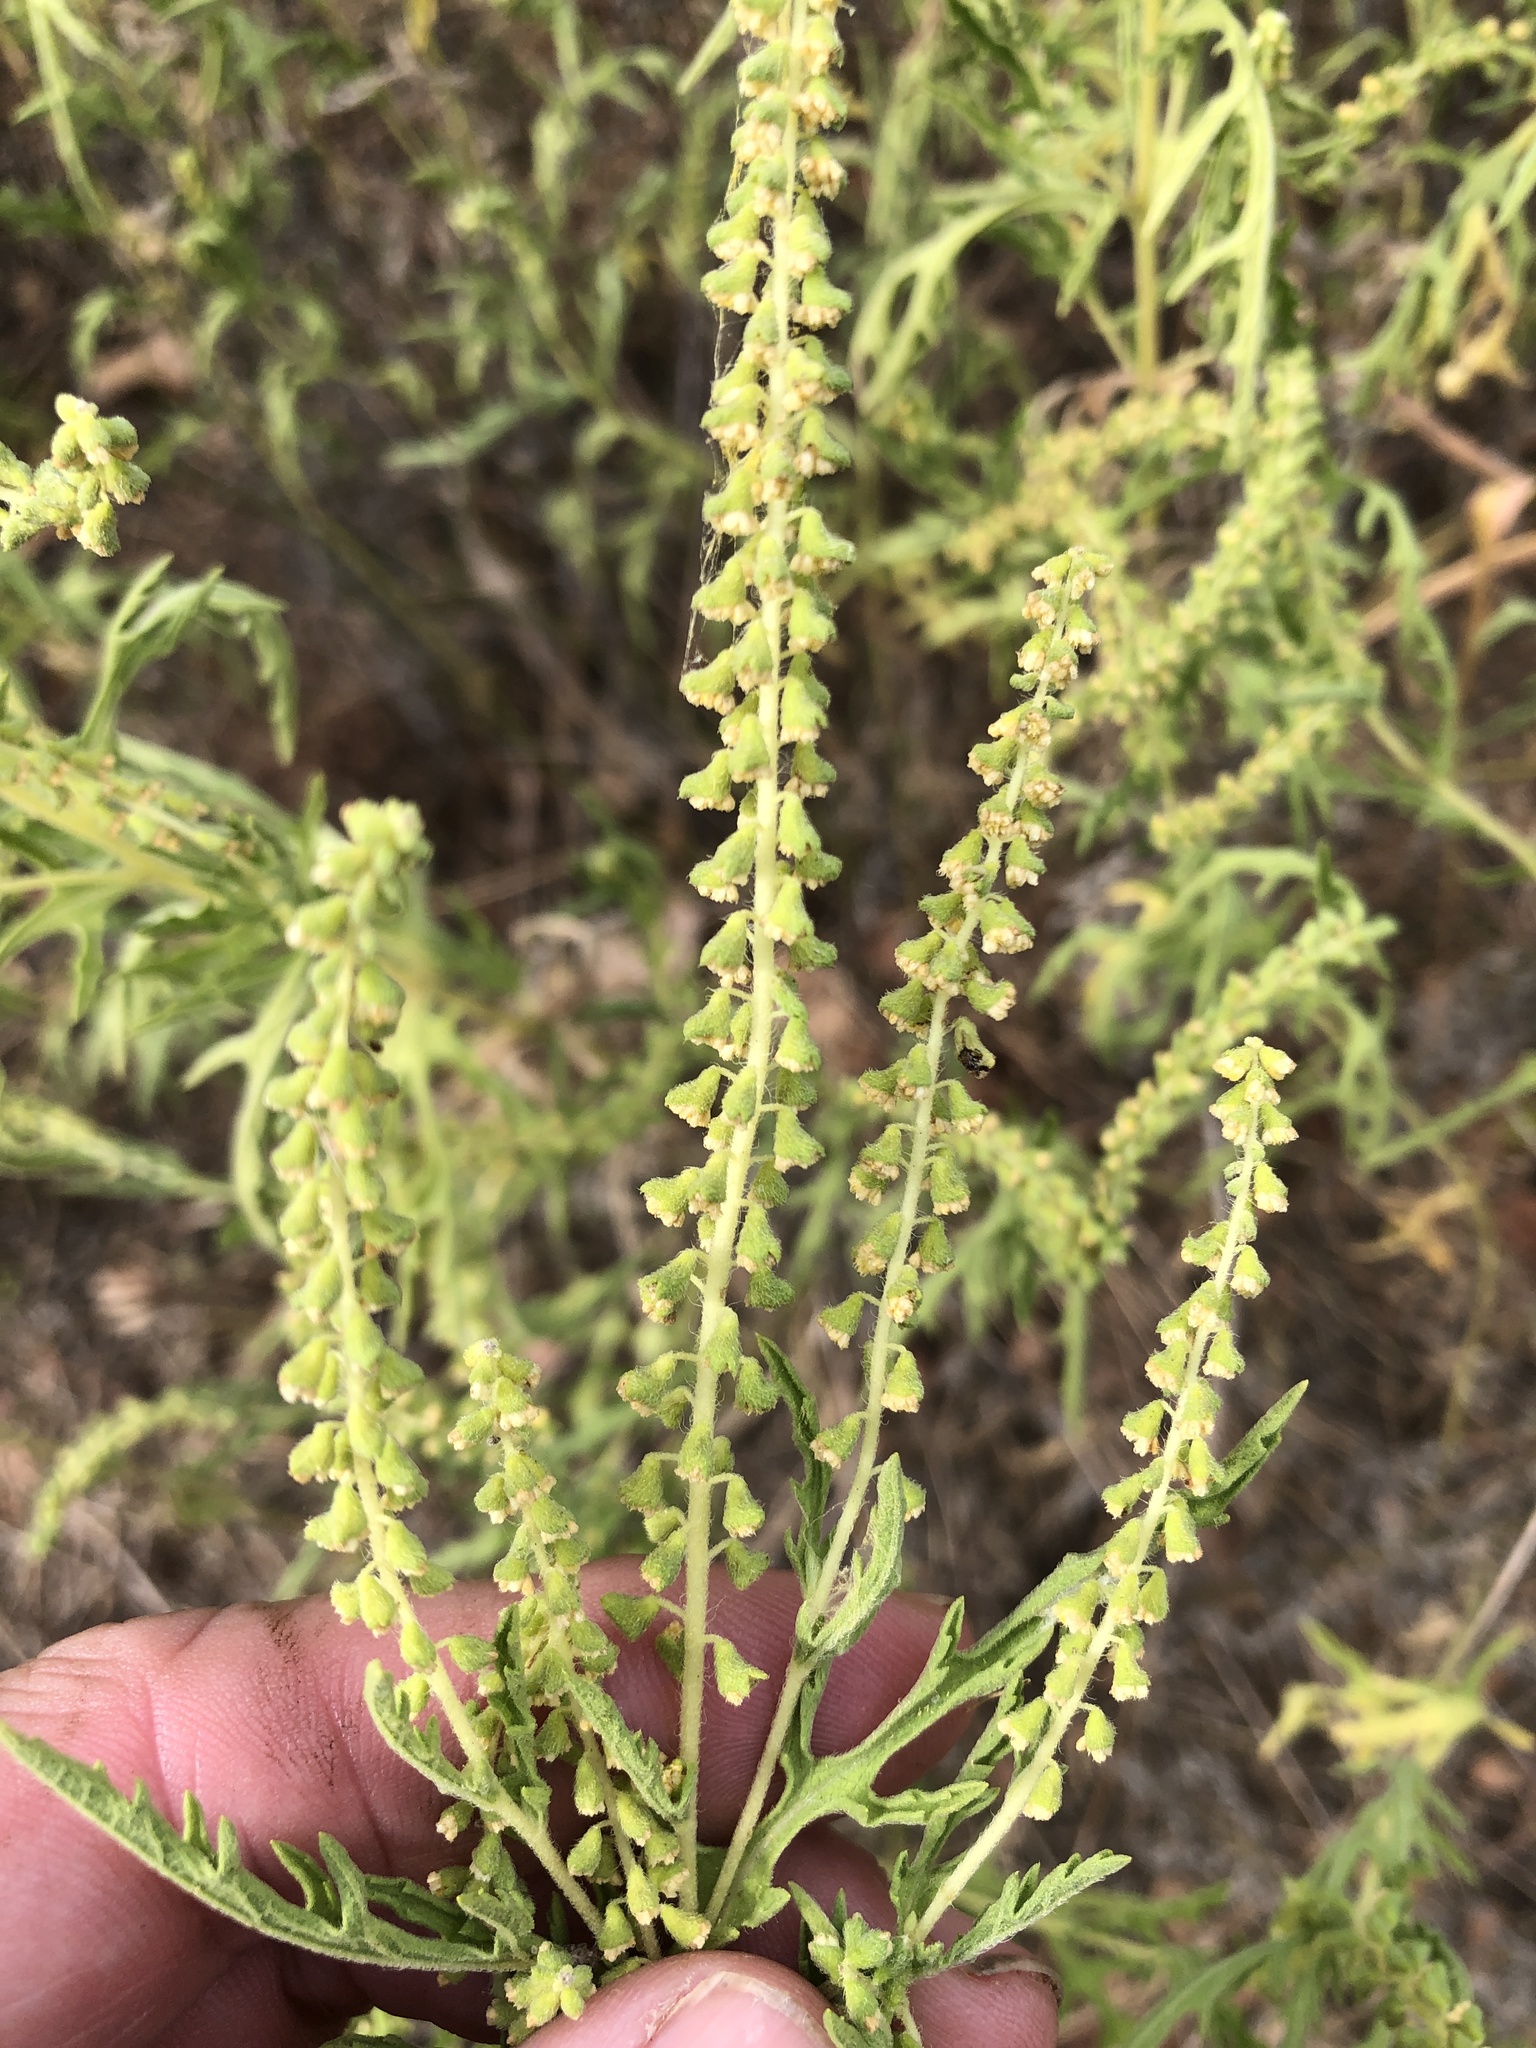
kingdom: Plantae
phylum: Tracheophyta
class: Magnoliopsida
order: Asterales
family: Asteraceae
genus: Ambrosia
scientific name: Ambrosia psilostachya
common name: Perennial ragweed
